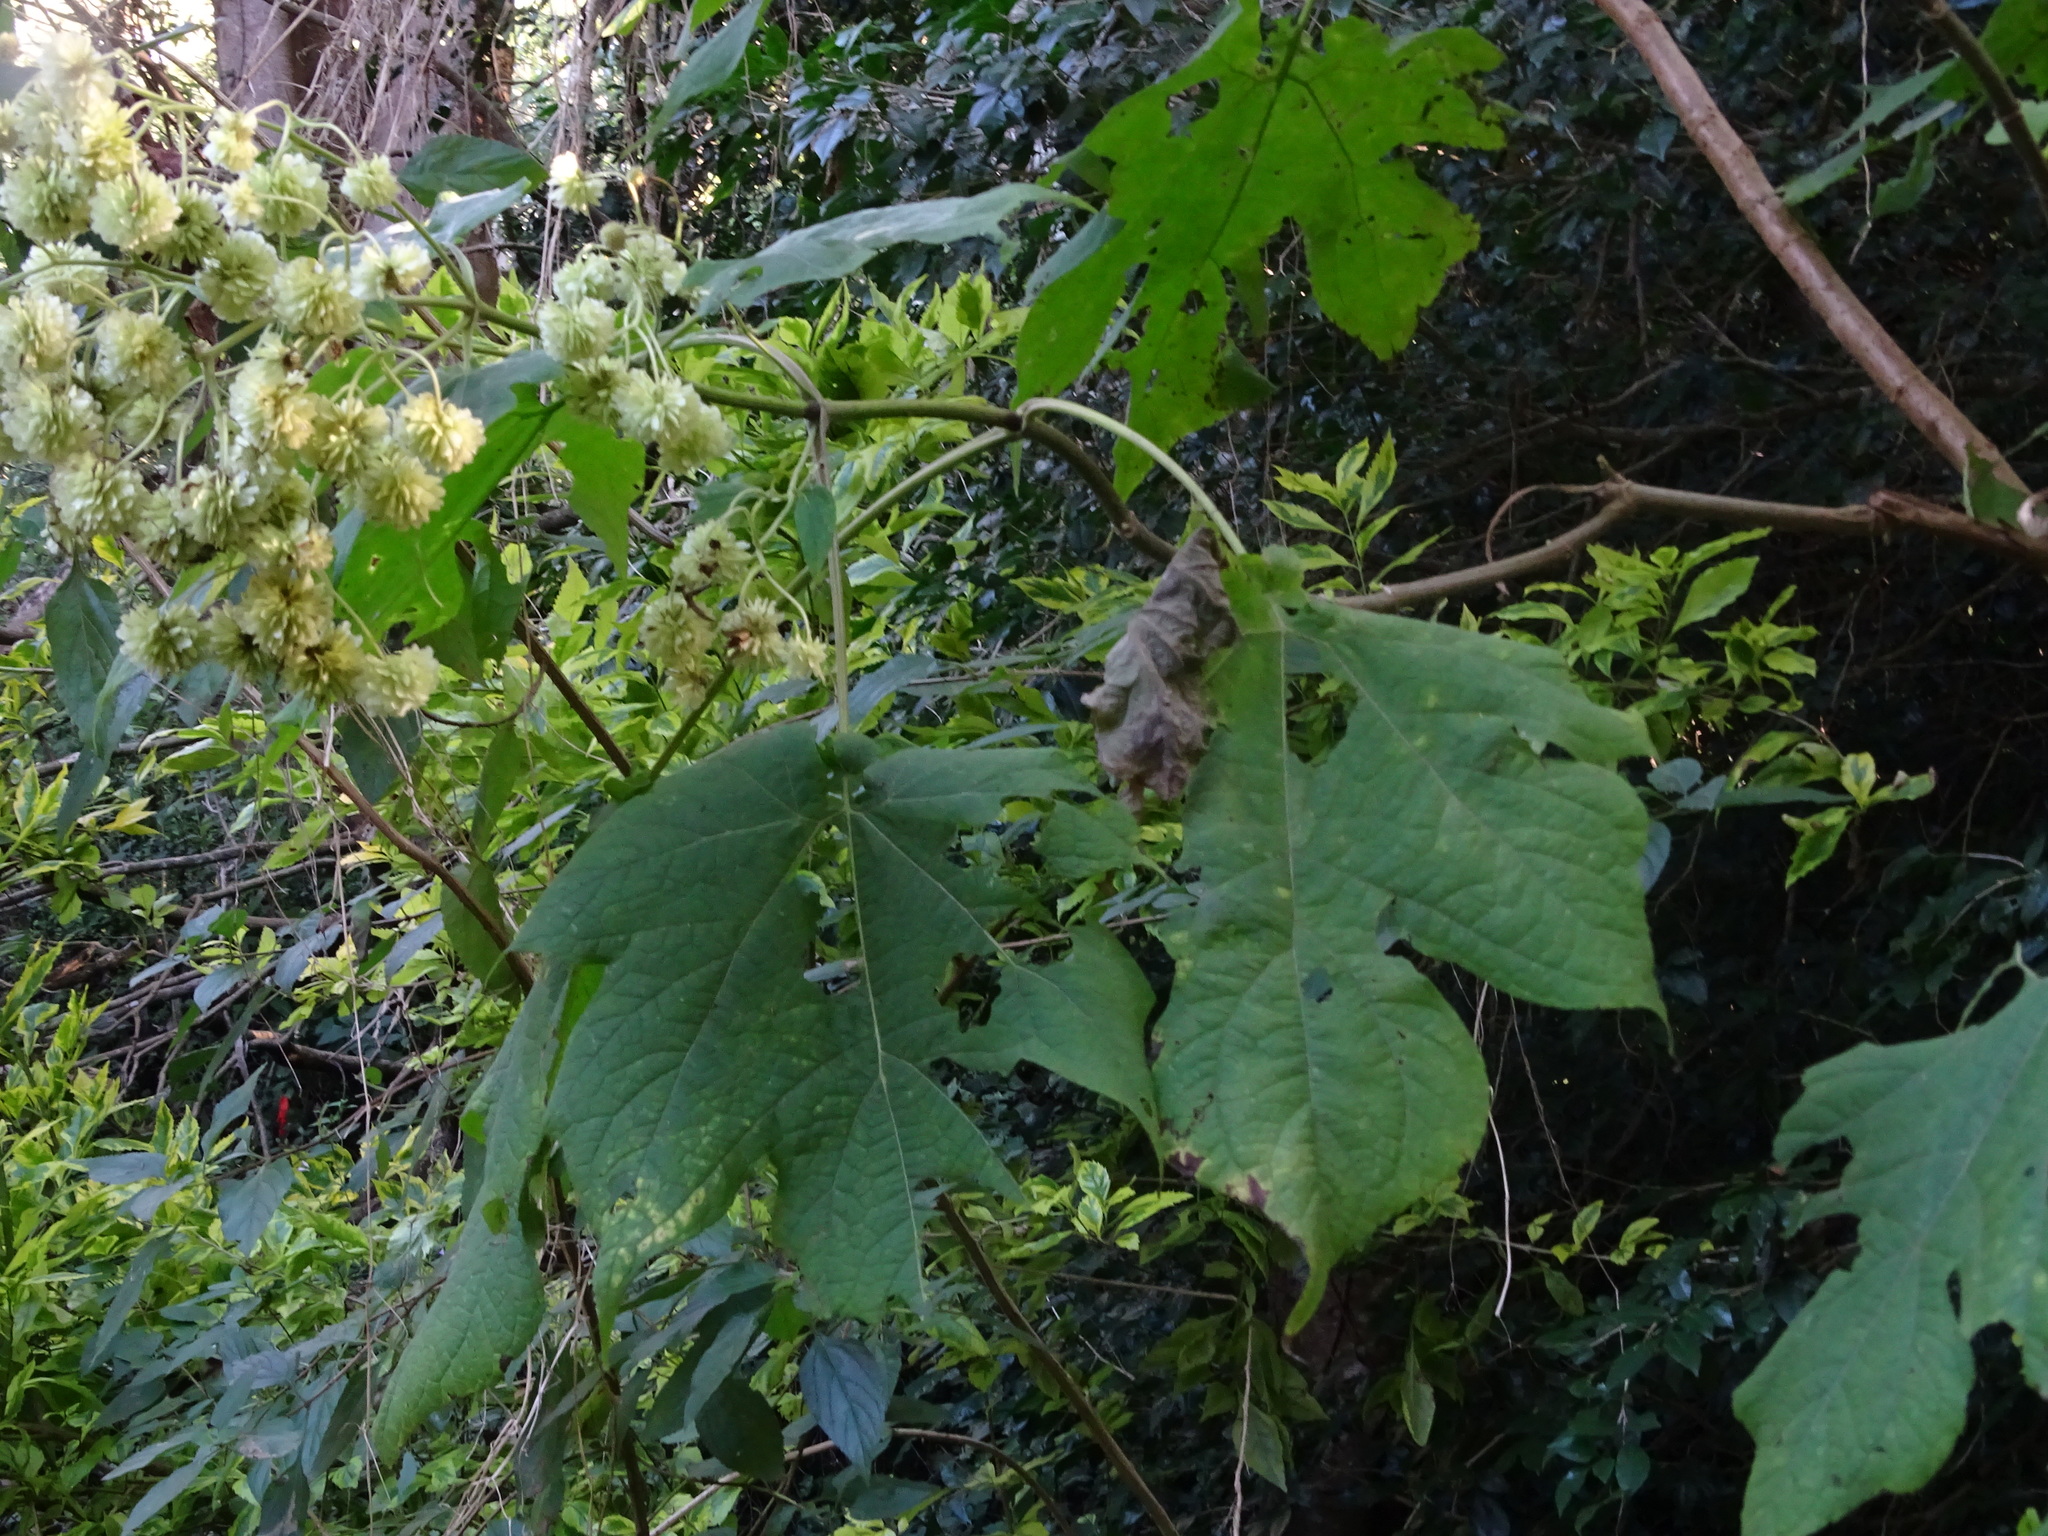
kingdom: Plantae
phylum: Tracheophyta
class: Magnoliopsida
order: Asterales
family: Asteraceae
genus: Montanoa
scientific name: Montanoa grandiflora
